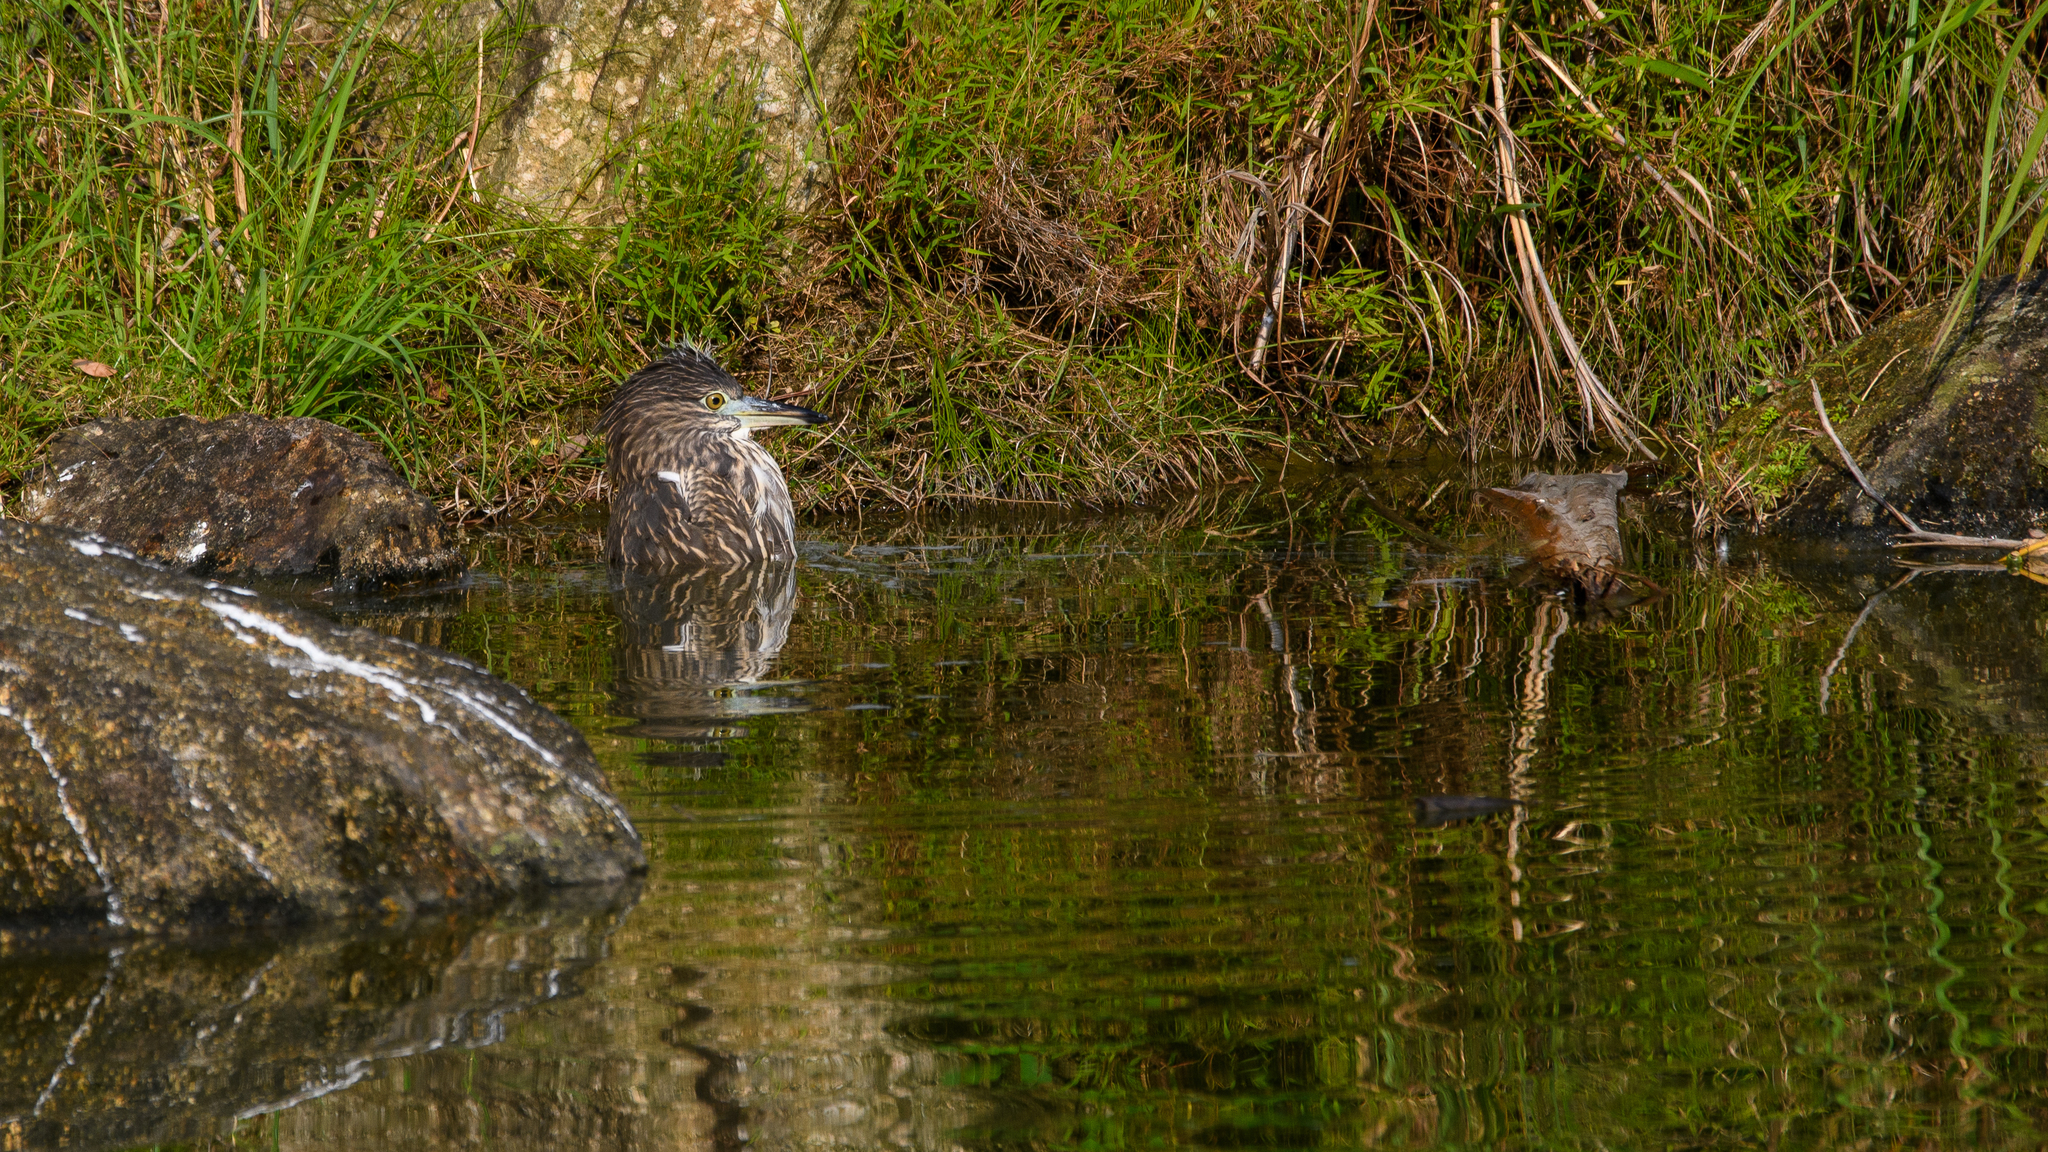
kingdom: Animalia
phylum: Chordata
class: Aves
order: Pelecaniformes
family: Ardeidae
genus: Nycticorax
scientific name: Nycticorax nycticorax
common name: Black-crowned night heron
